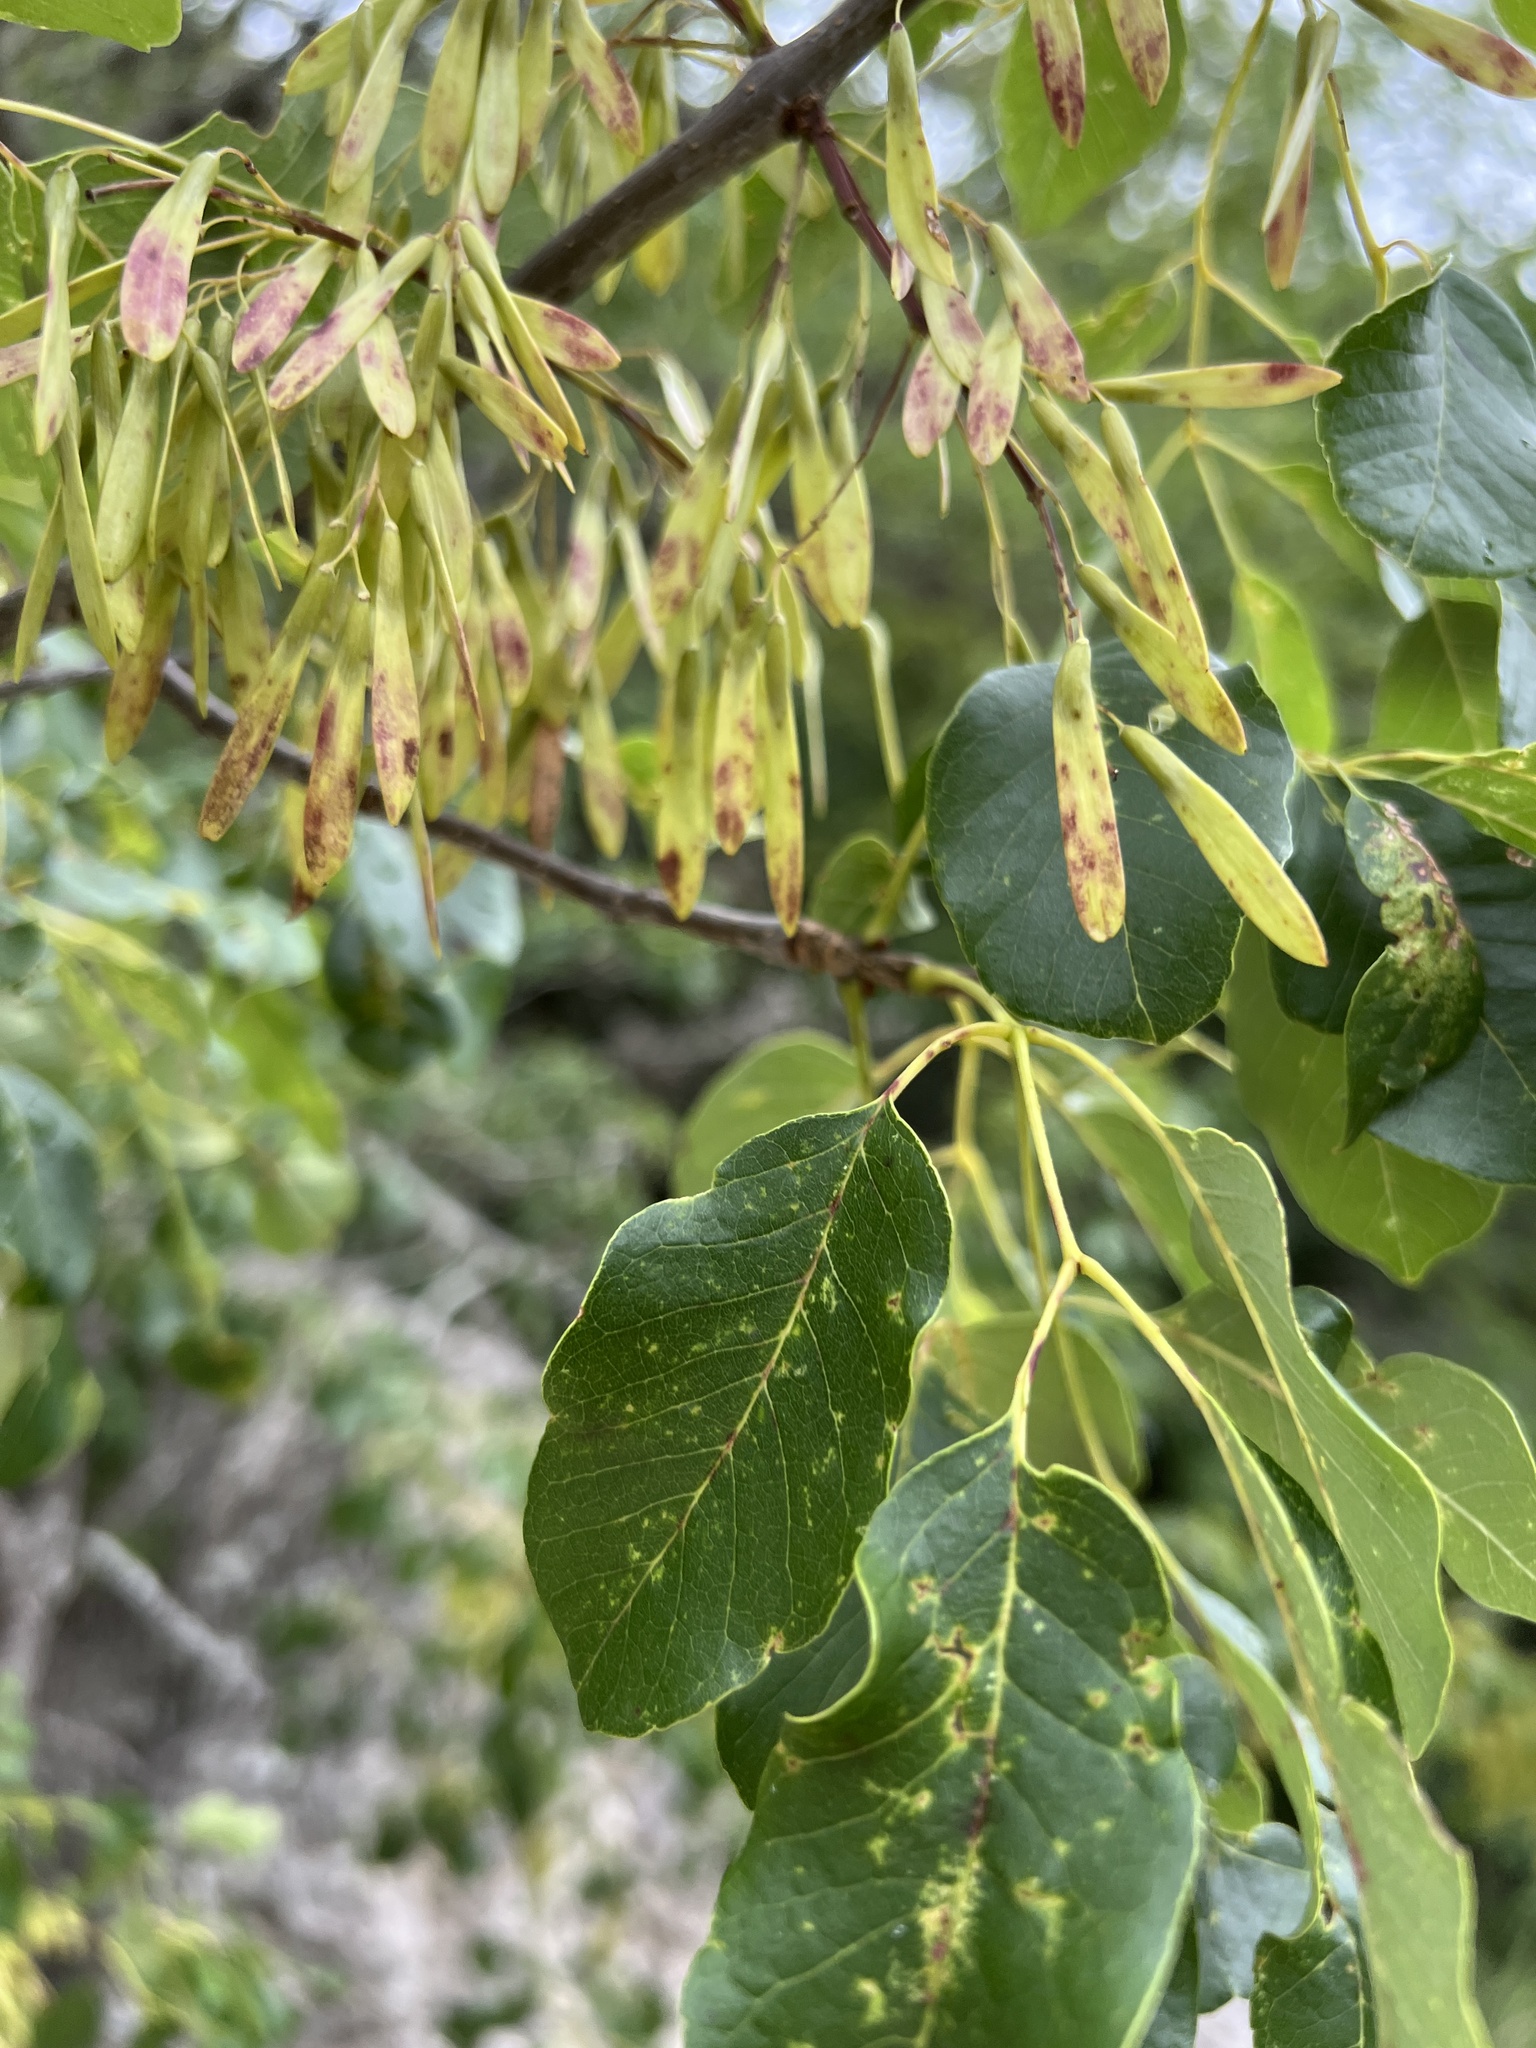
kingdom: Plantae
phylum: Tracheophyta
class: Magnoliopsida
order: Lamiales
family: Oleaceae
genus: Fraxinus
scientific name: Fraxinus albicans
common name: Texas ash
